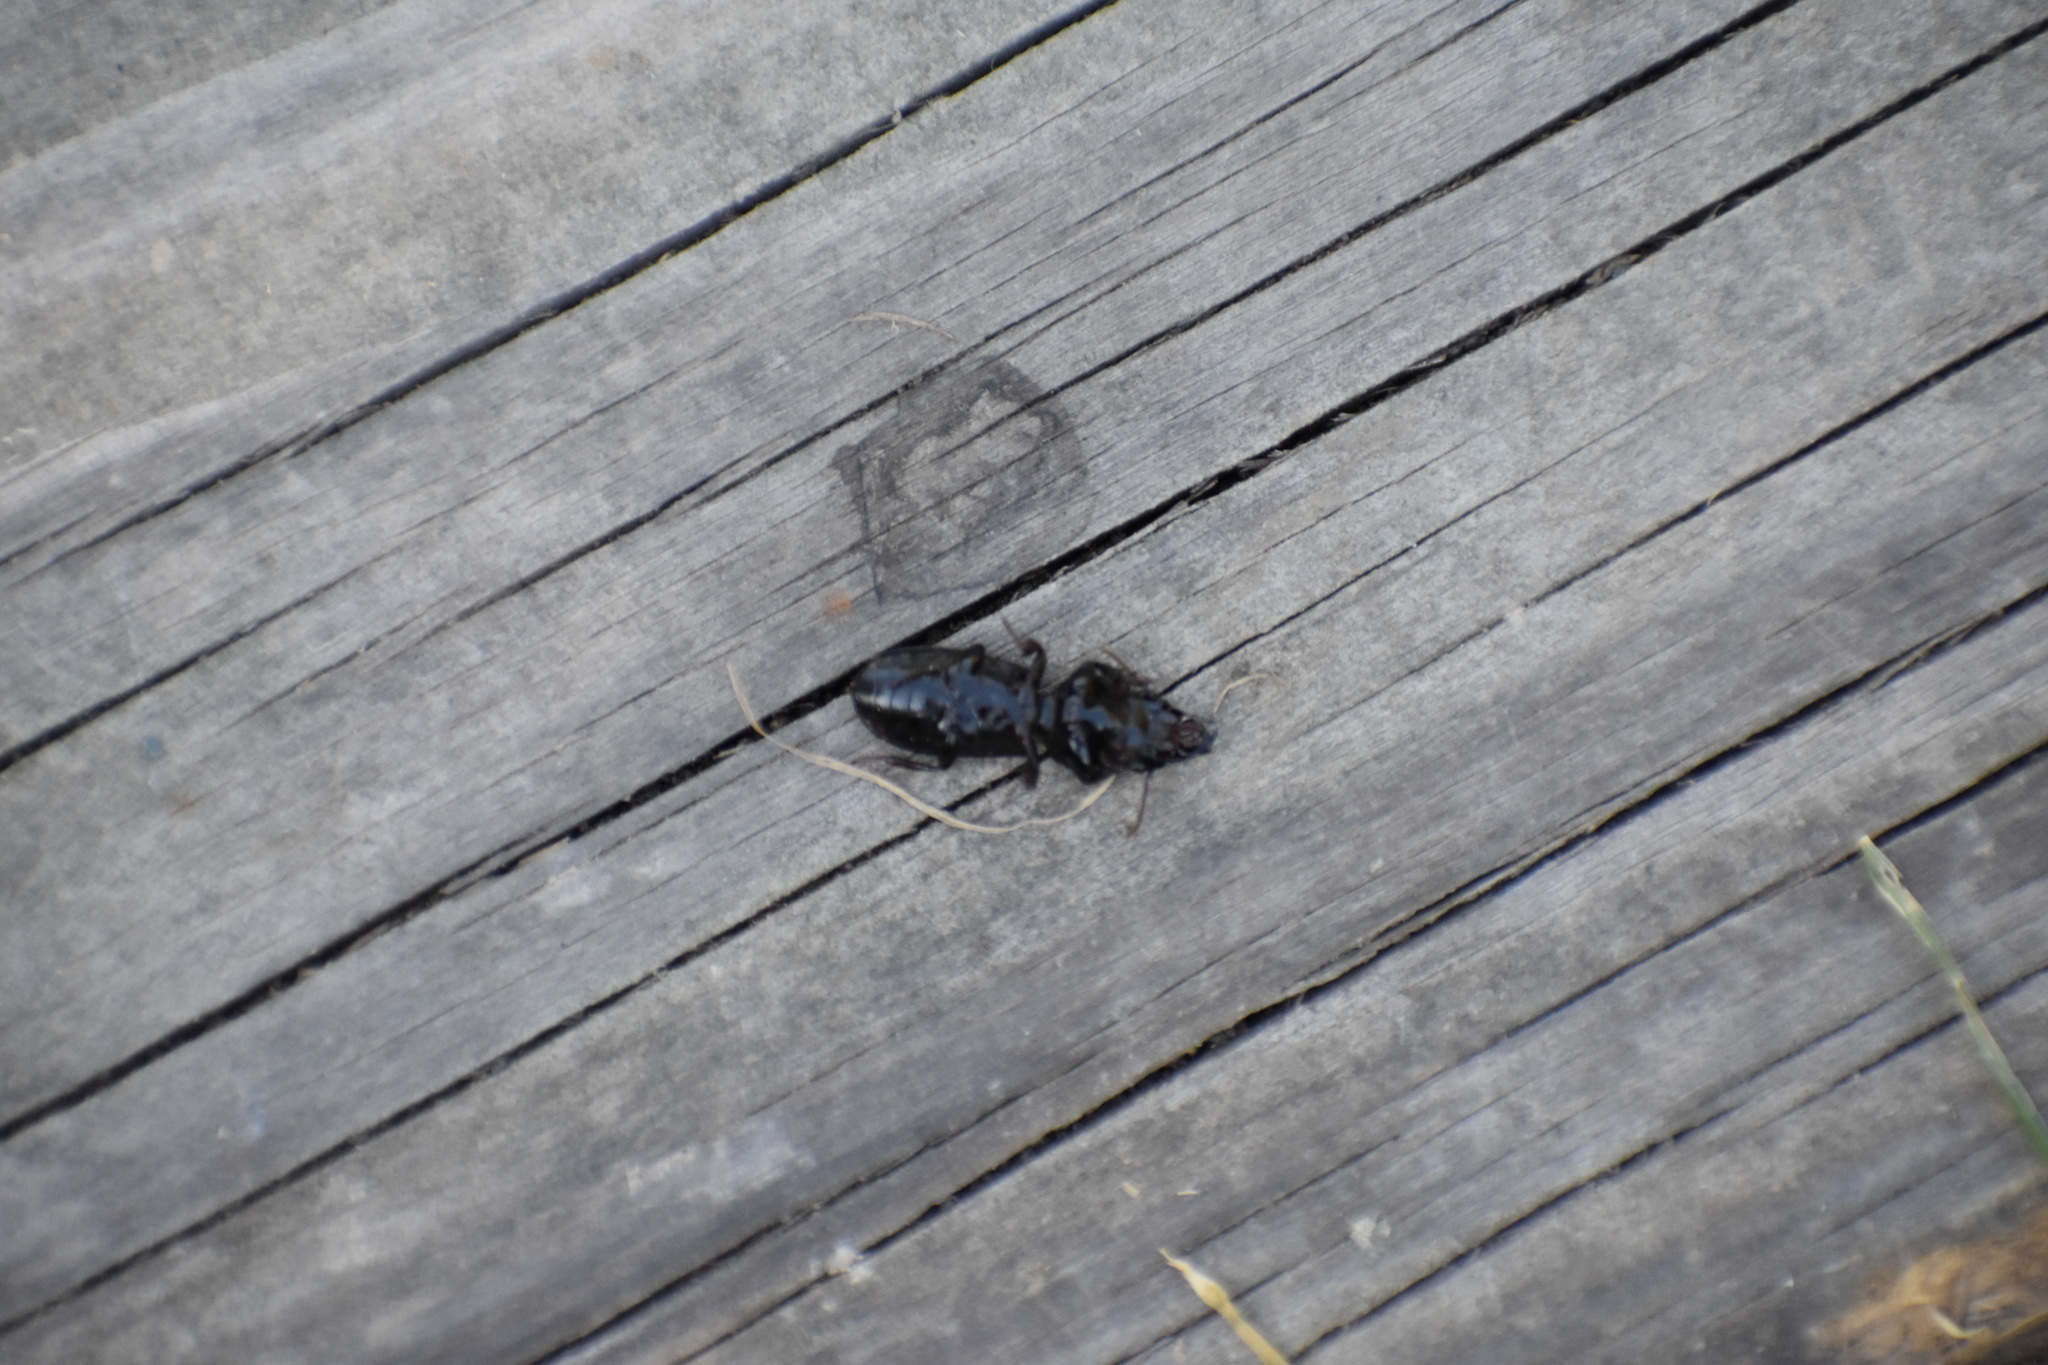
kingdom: Animalia
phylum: Arthropoda
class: Insecta
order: Coleoptera
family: Carabidae
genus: Scarites
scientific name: Scarites subterraneus
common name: Big-headed ground beetle
